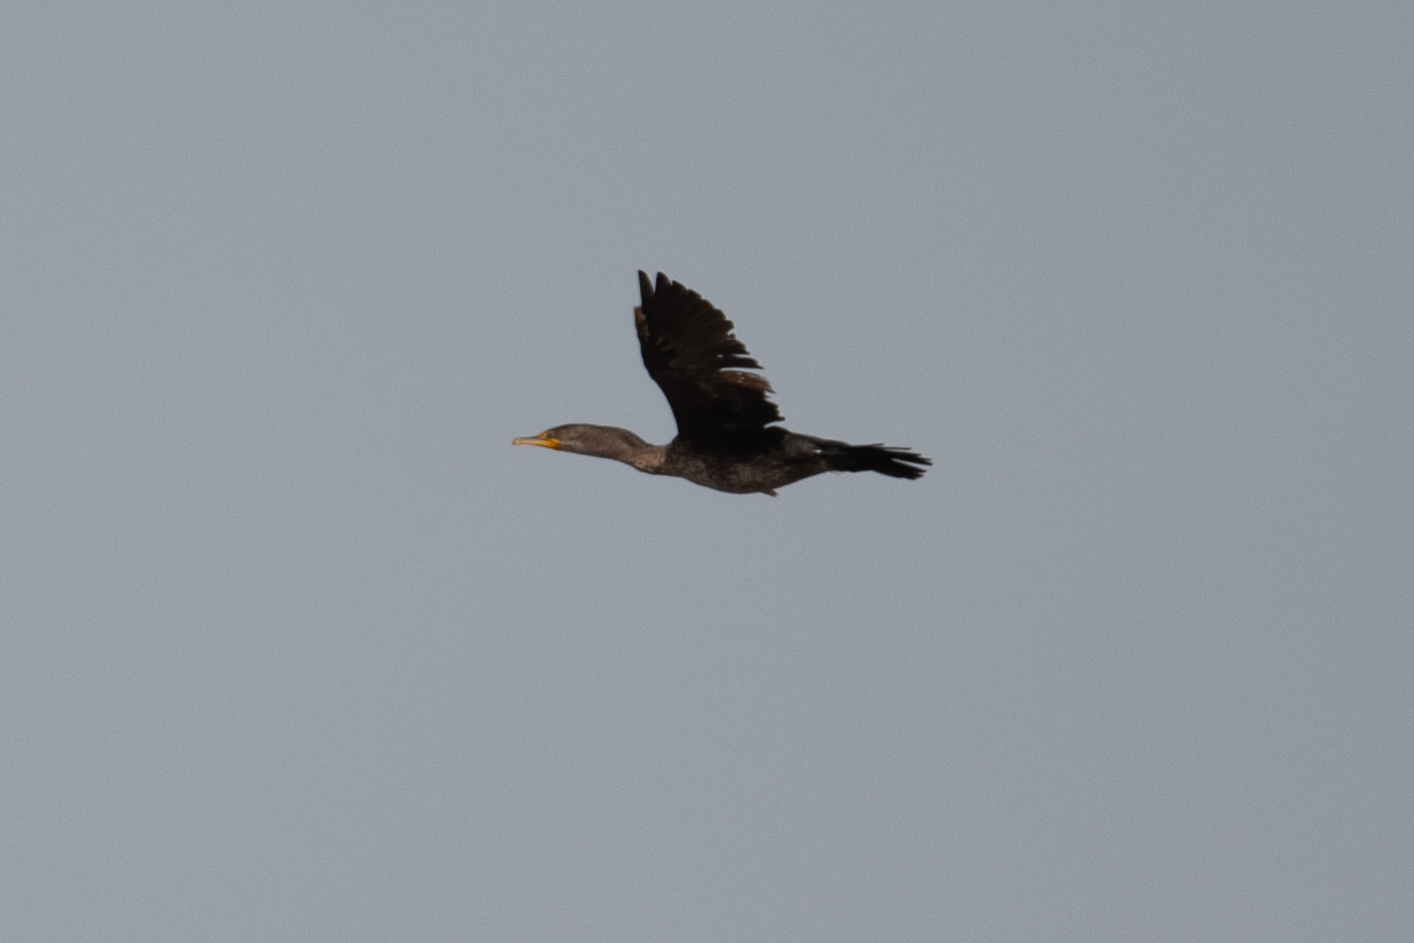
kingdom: Animalia
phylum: Chordata
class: Aves
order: Suliformes
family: Phalacrocoracidae
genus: Phalacrocorax
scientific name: Phalacrocorax auritus
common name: Double-crested cormorant
